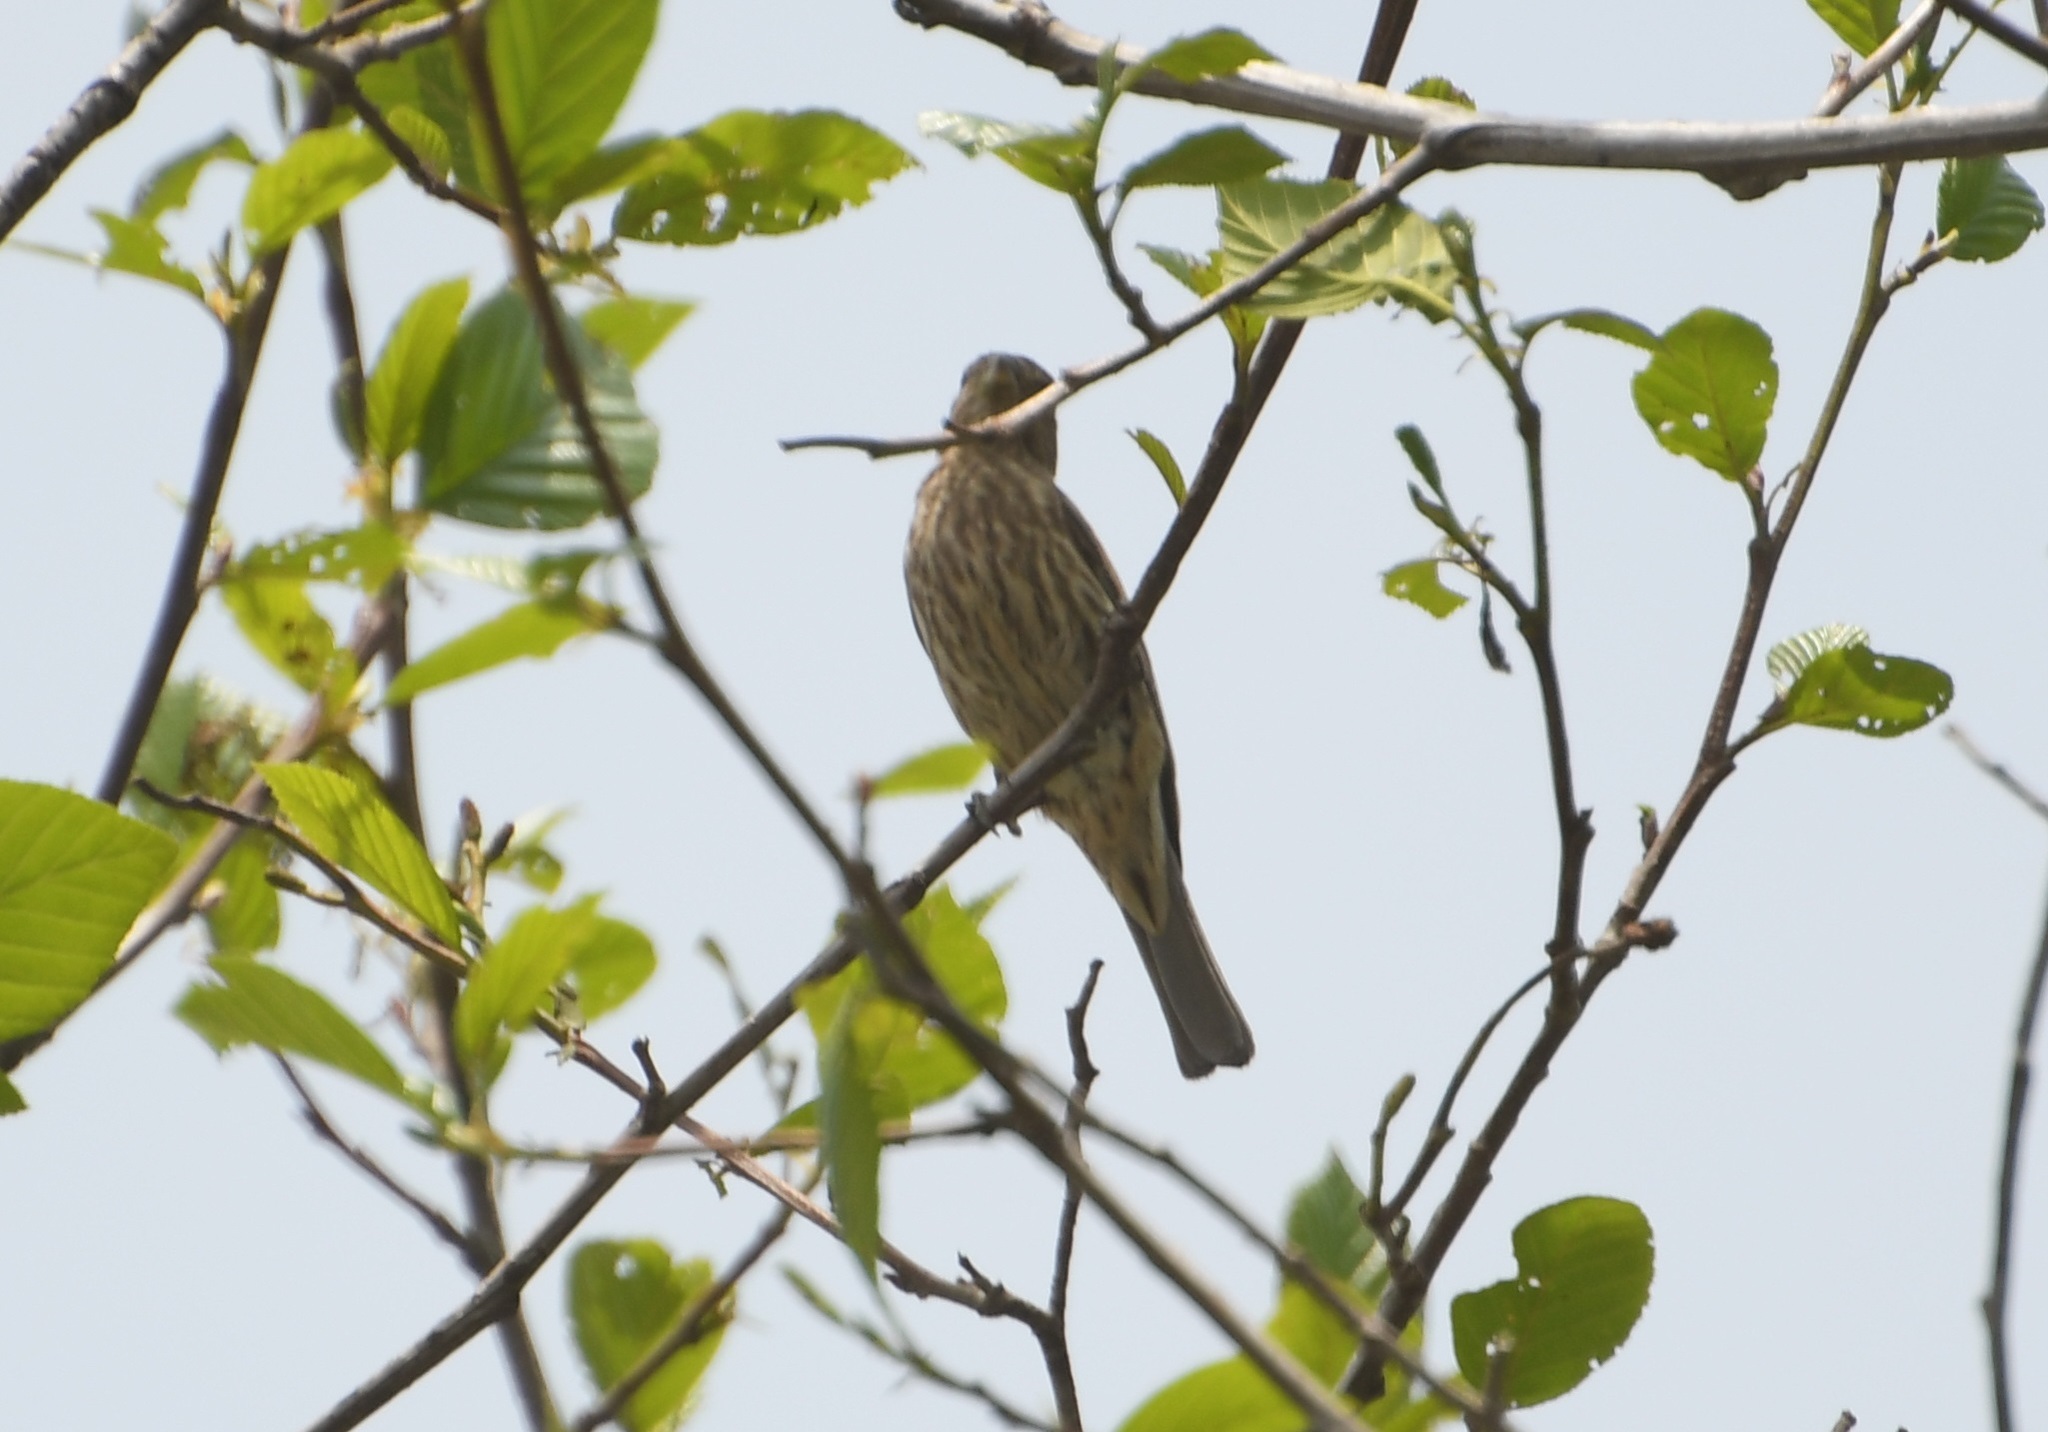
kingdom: Animalia
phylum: Chordata
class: Aves
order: Passeriformes
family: Fringillidae
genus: Haemorhous
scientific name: Haemorhous mexicanus
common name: House finch
